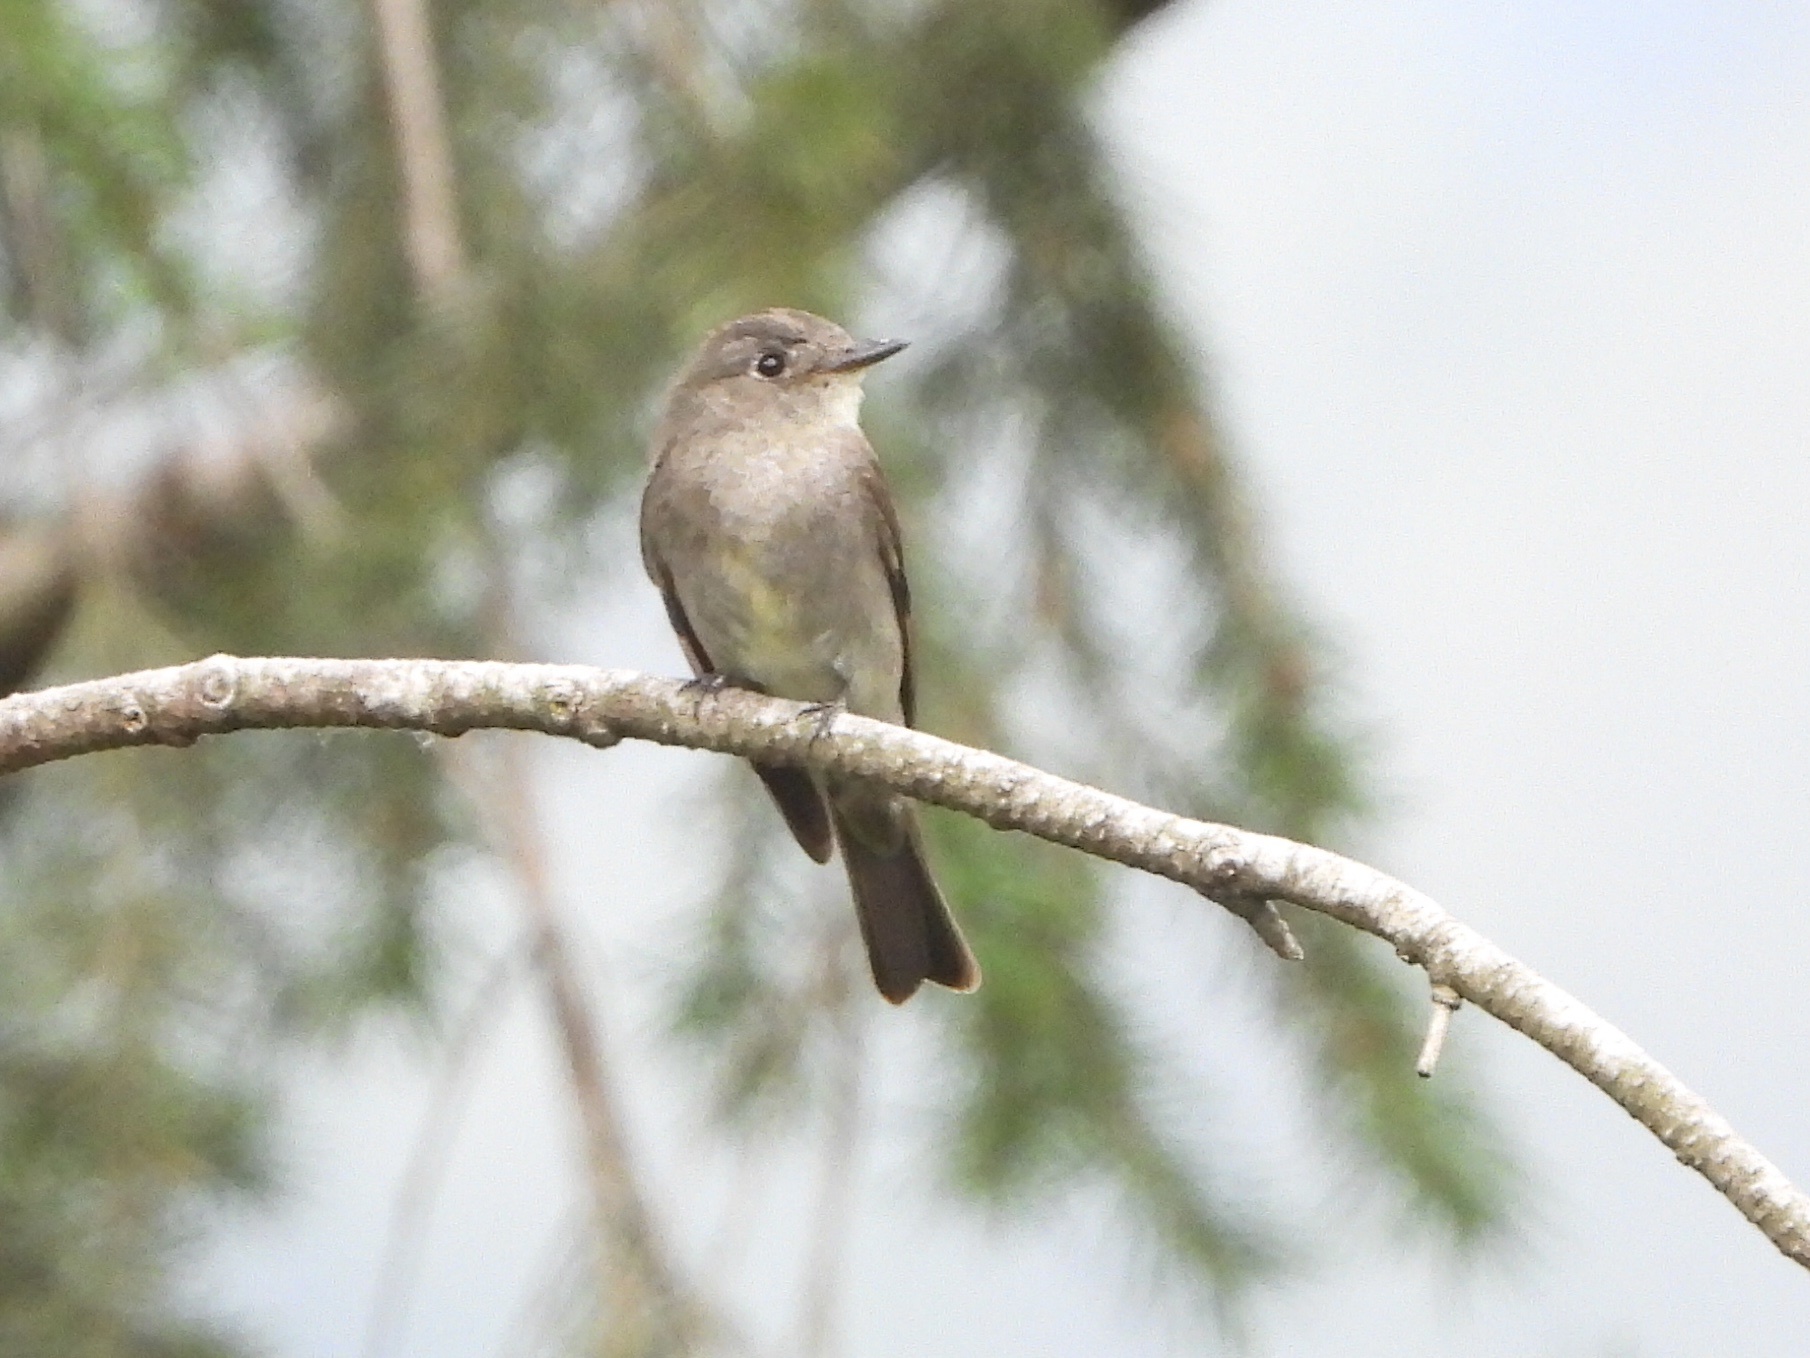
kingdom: Animalia
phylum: Chordata
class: Aves
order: Passeriformes
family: Tyrannidae
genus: Contopus
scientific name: Contopus sordidulus
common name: Western wood-pewee
